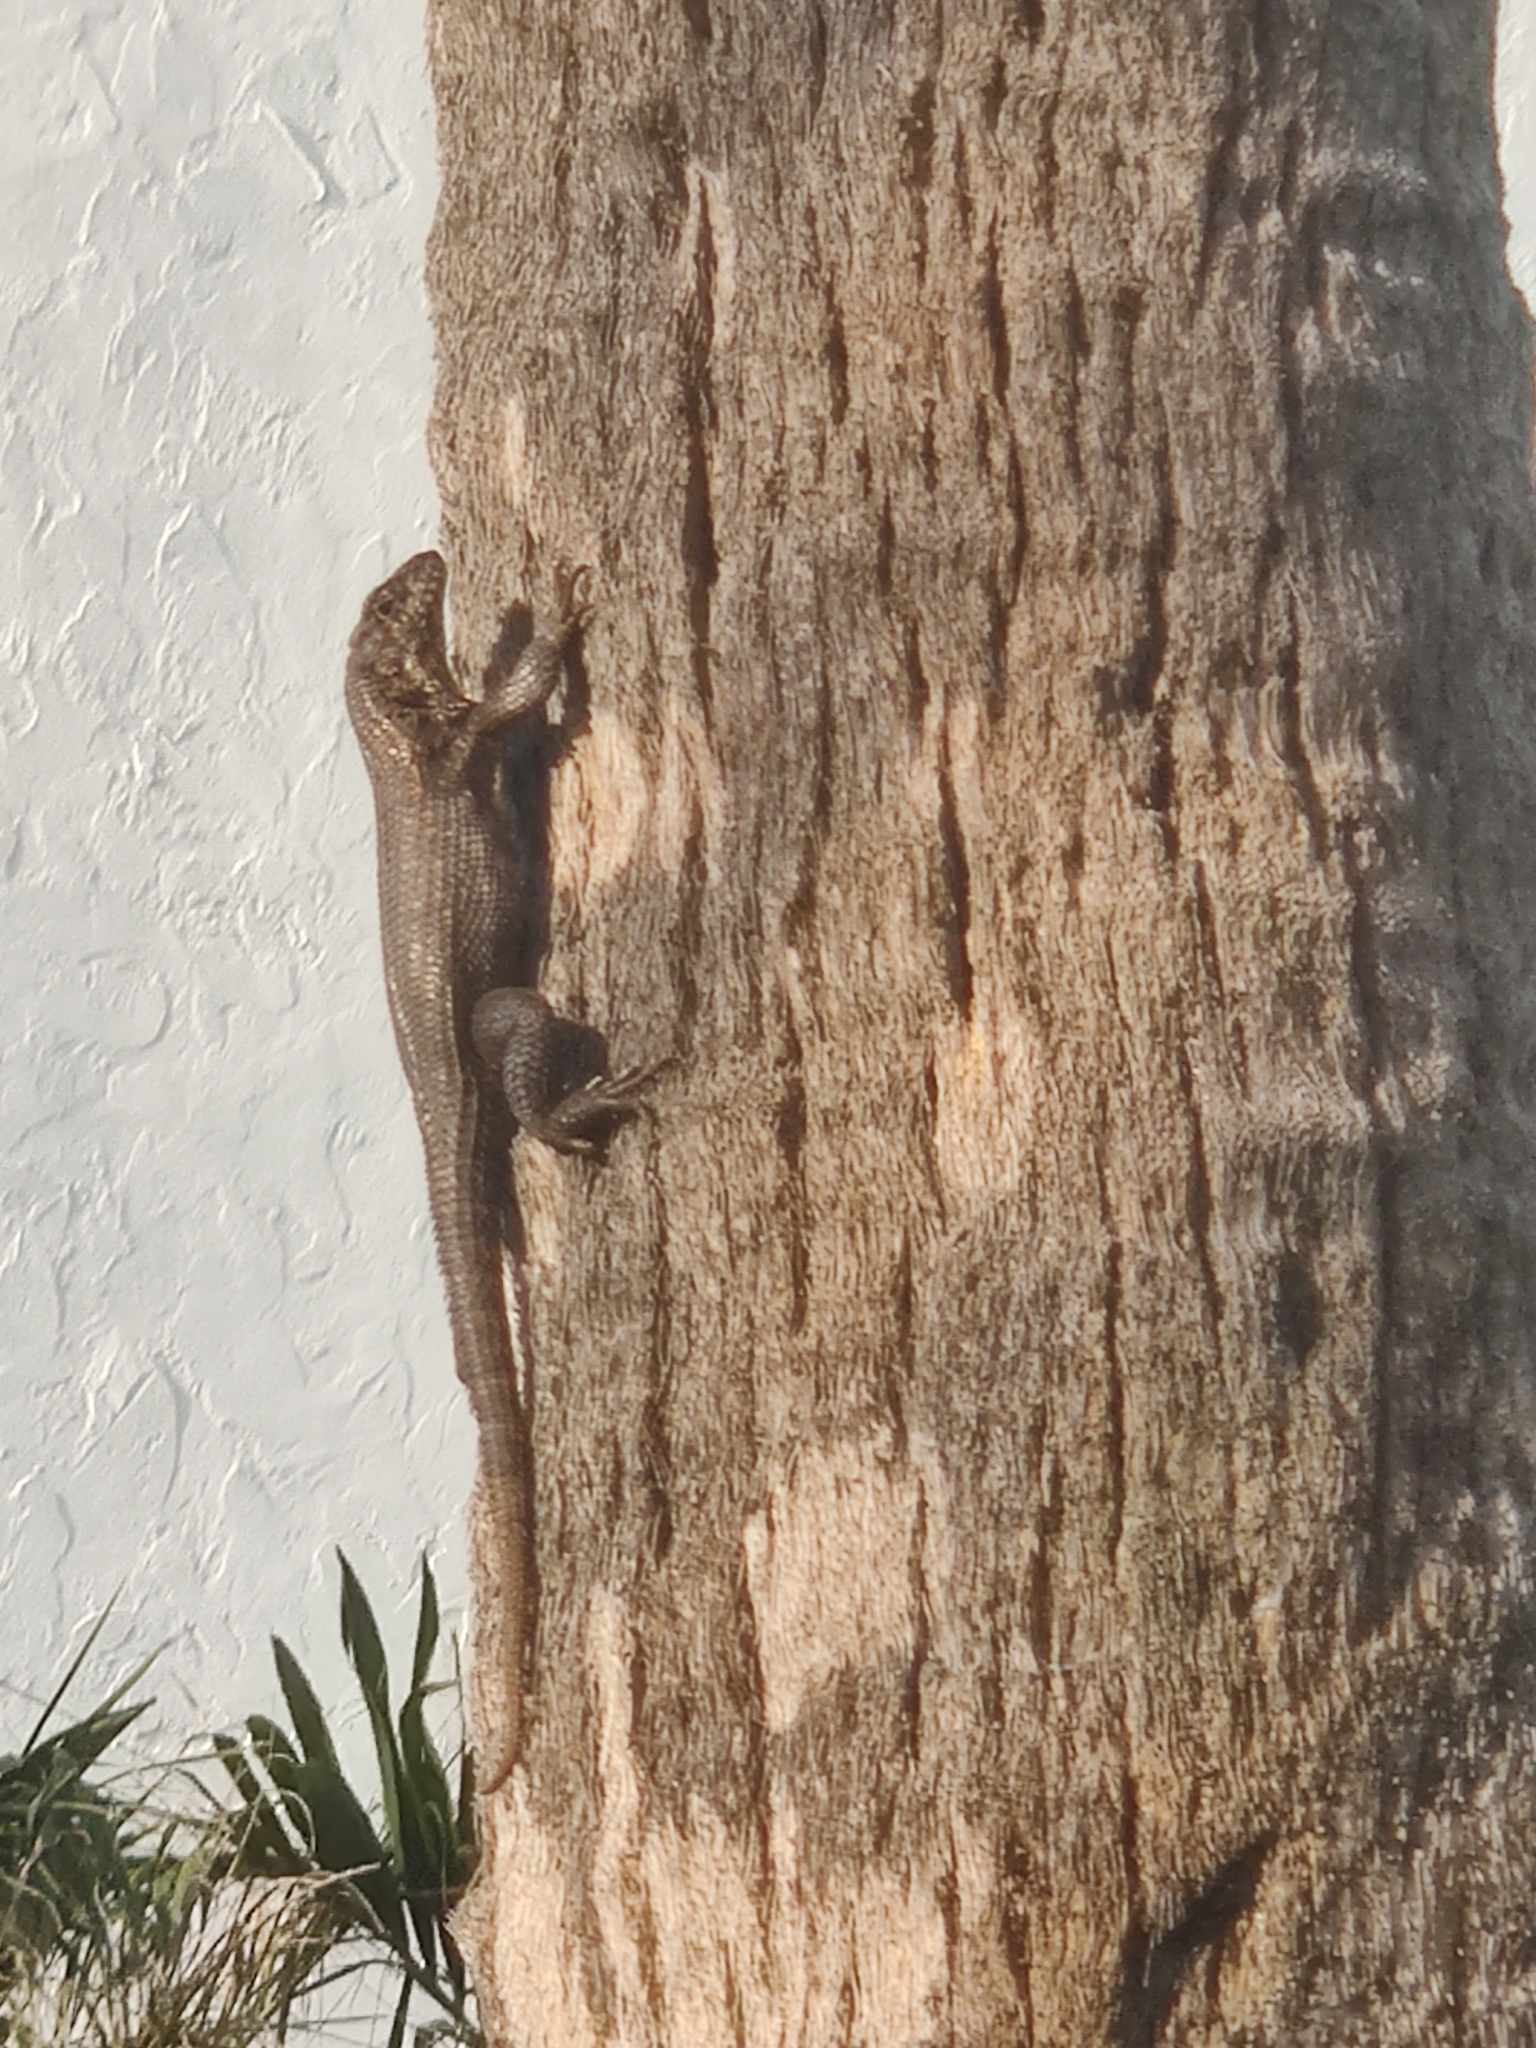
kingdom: Animalia
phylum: Chordata
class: Squamata
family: Leiocephalidae
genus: Leiocephalus
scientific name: Leiocephalus carinatus
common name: Northern curly-tailed lizard
